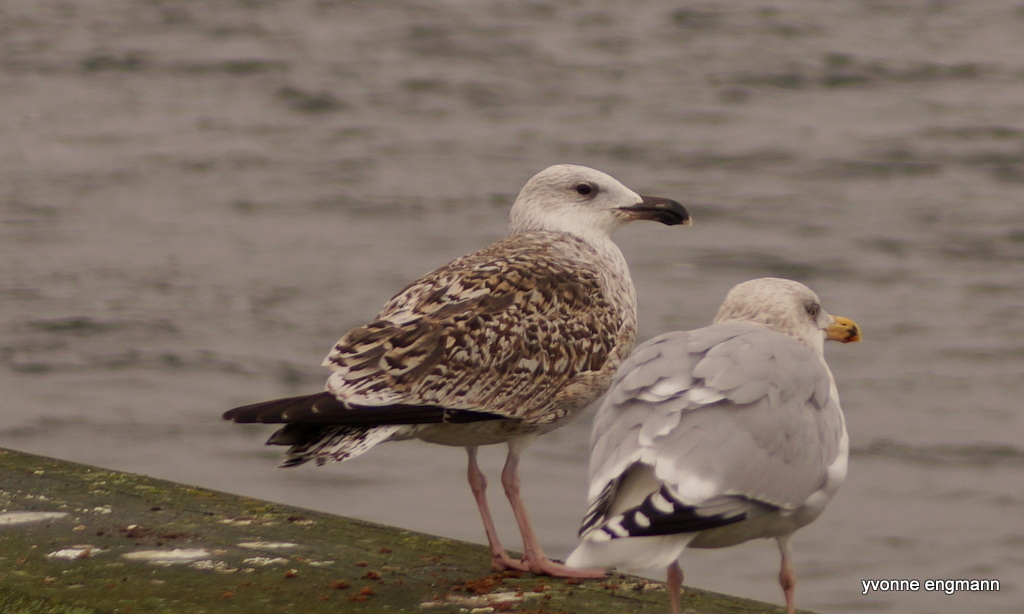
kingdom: Animalia
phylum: Chordata
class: Aves
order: Charadriiformes
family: Laridae
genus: Larus
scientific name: Larus marinus
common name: Great black-backed gull
